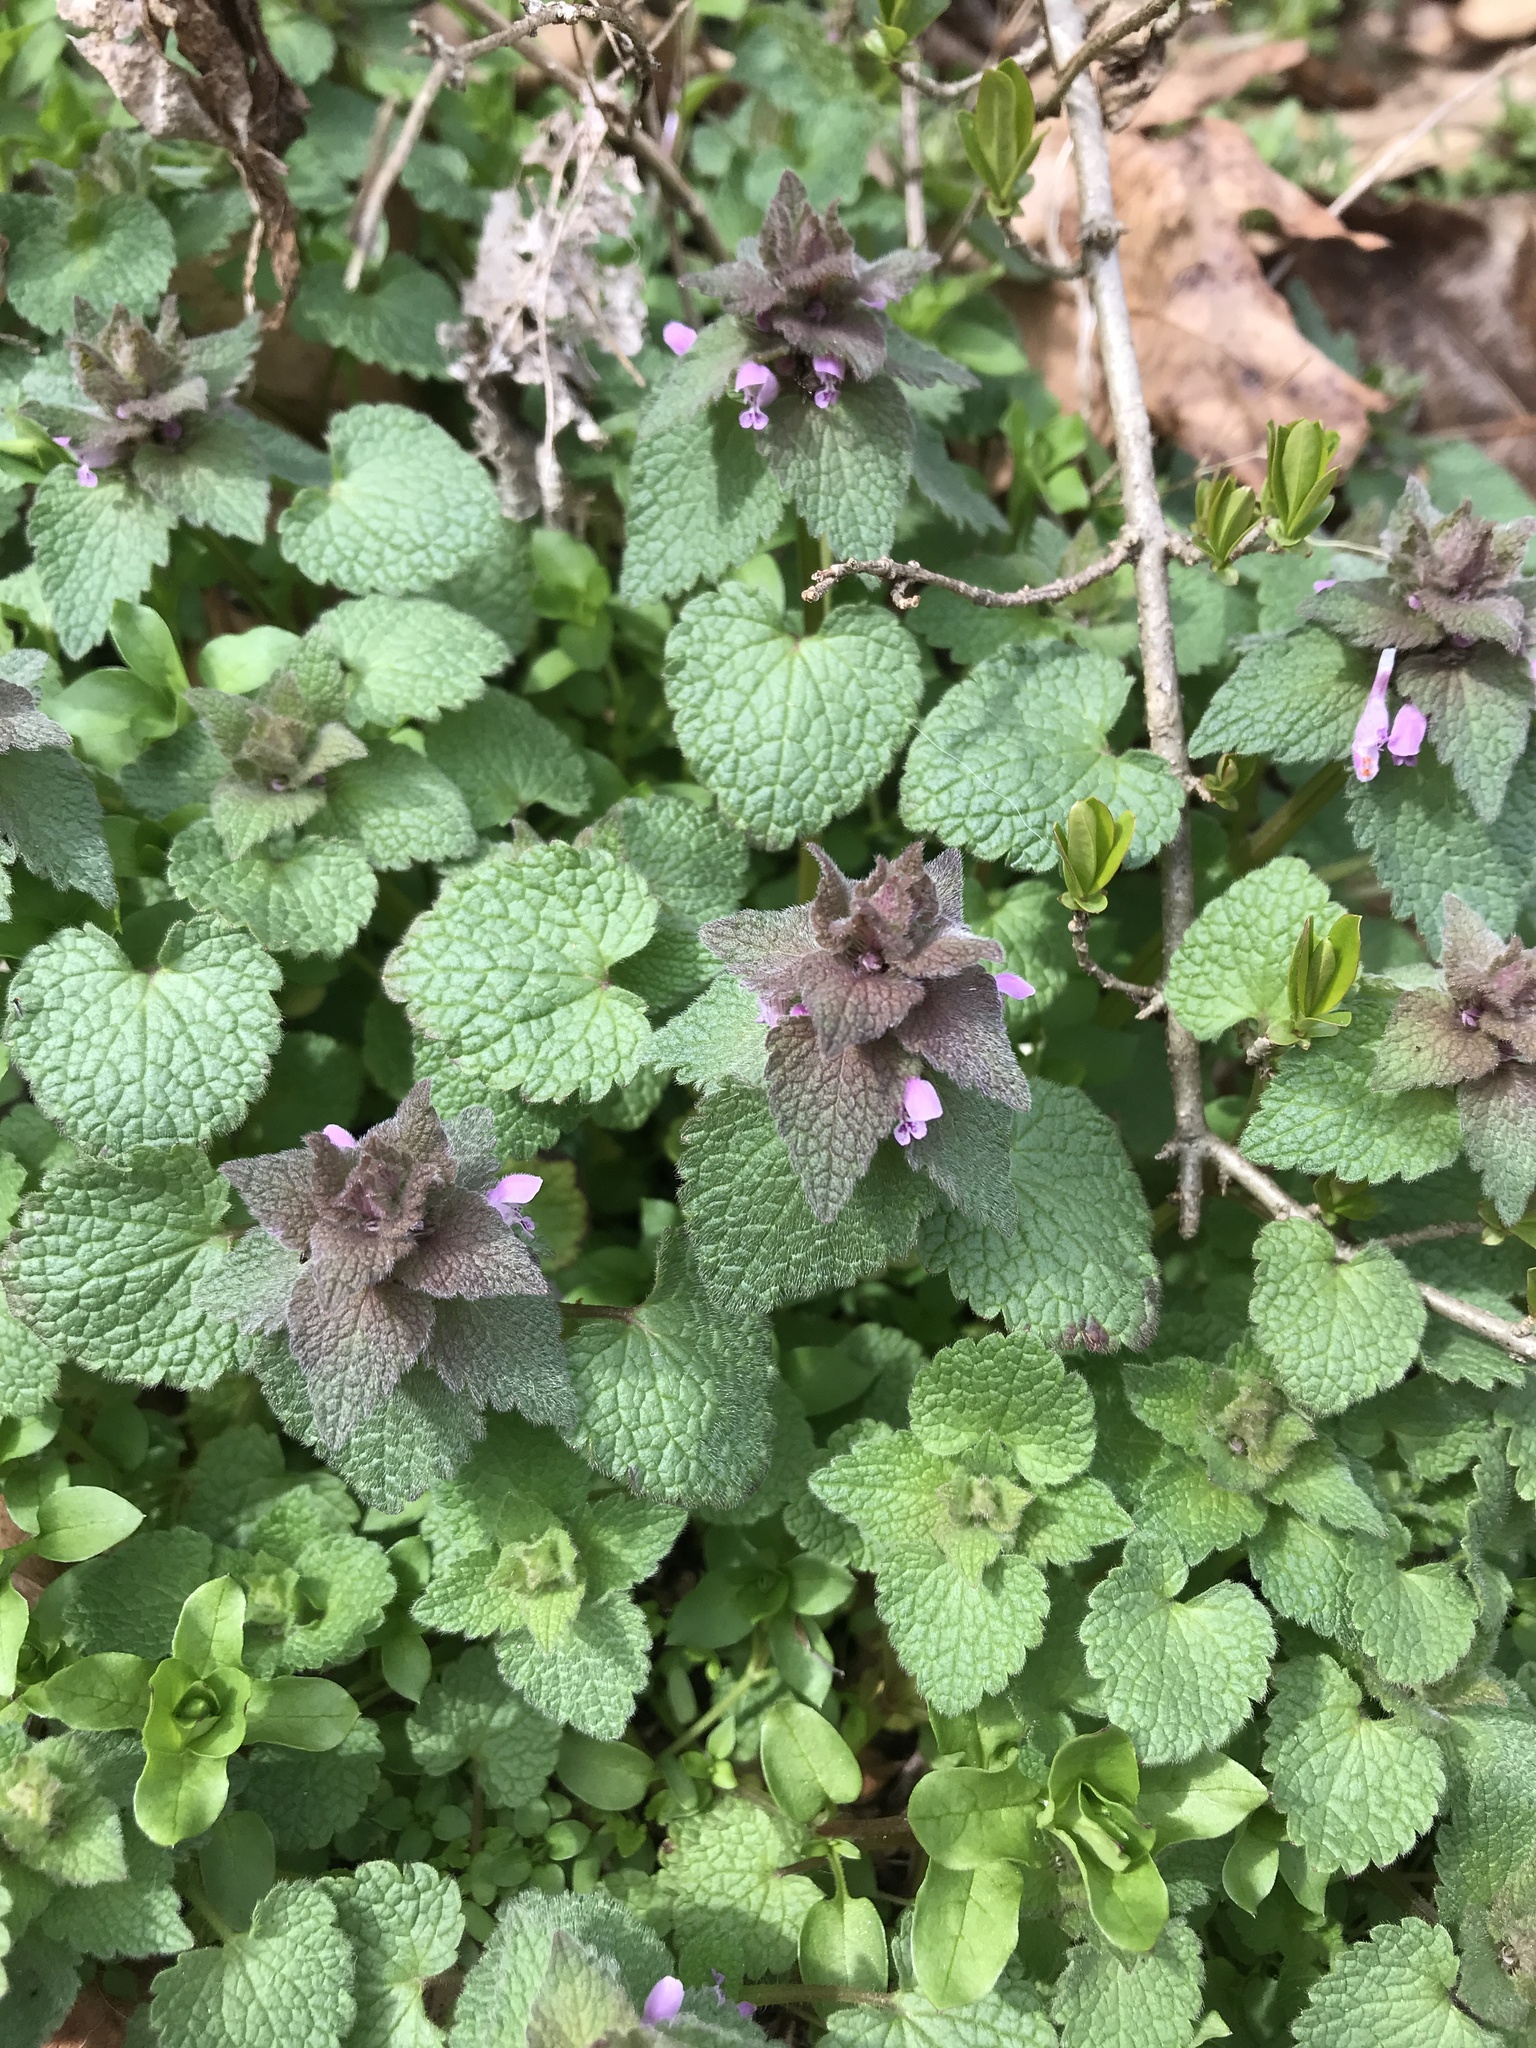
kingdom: Plantae
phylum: Tracheophyta
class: Magnoliopsida
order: Lamiales
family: Lamiaceae
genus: Lamium
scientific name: Lamium purpureum
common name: Red dead-nettle
